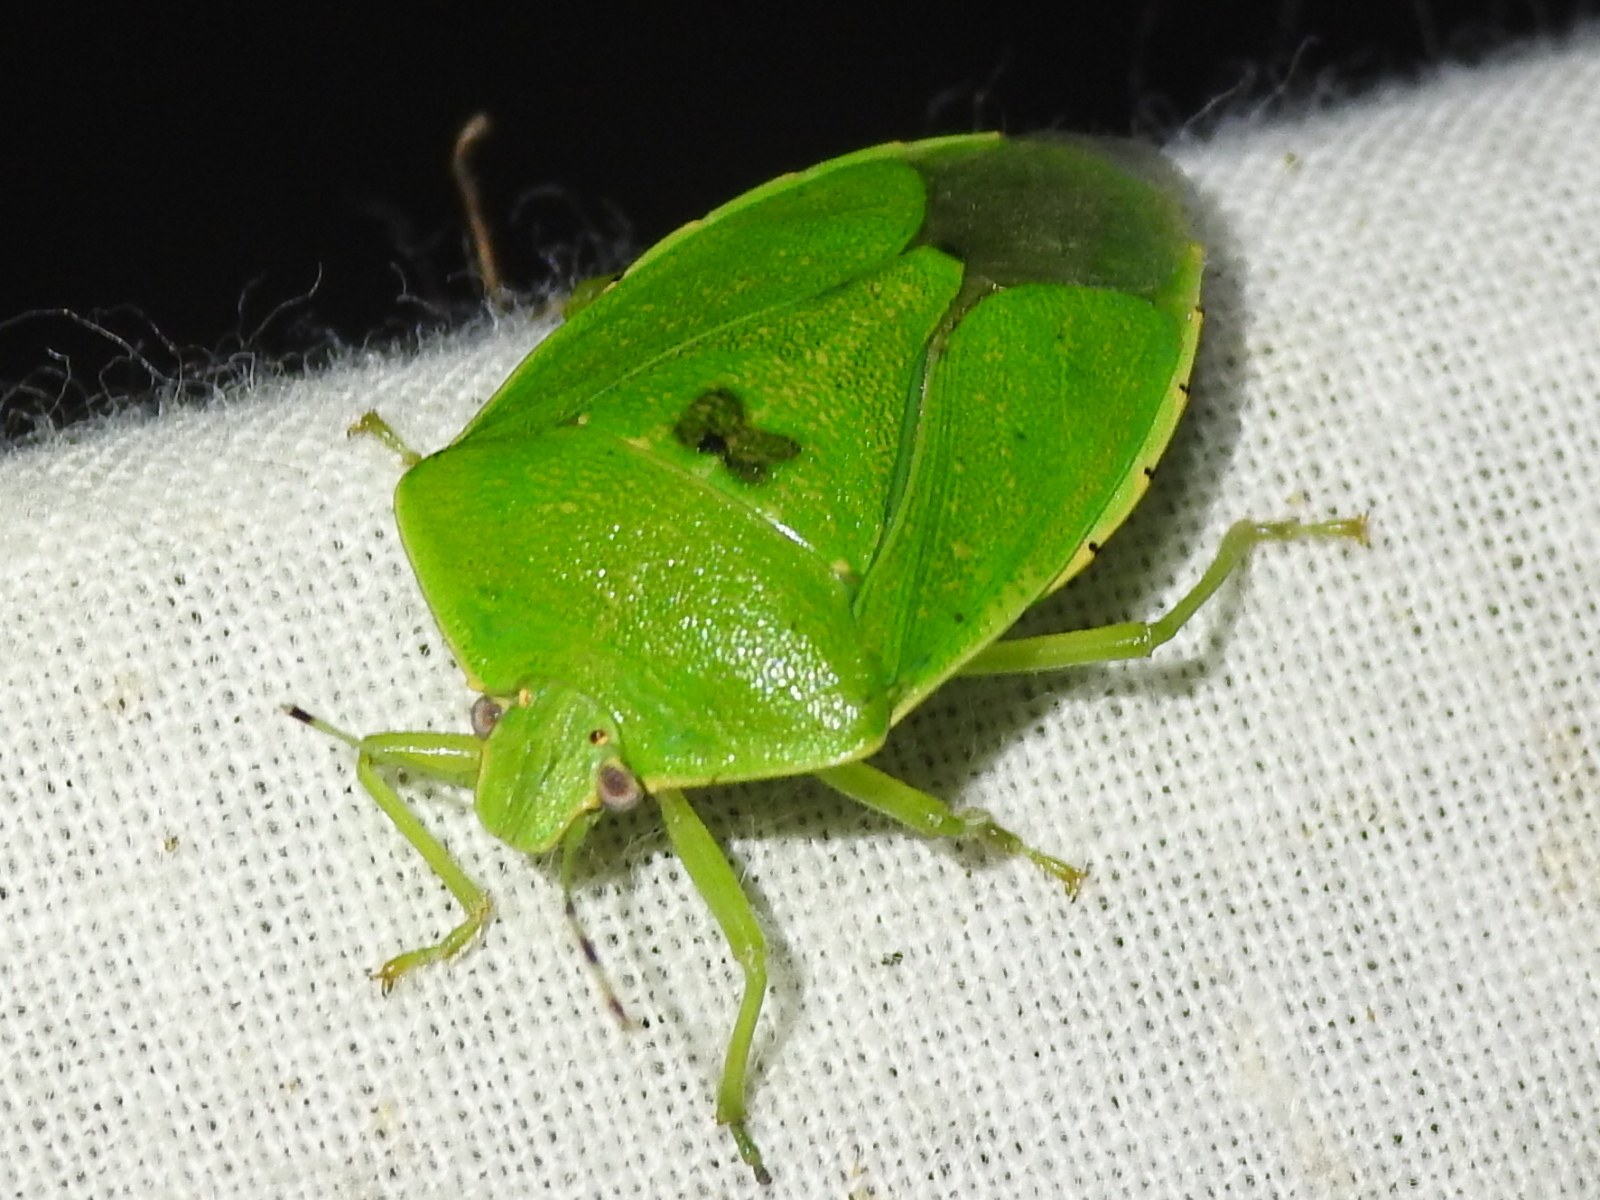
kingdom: Animalia
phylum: Arthropoda
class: Insecta
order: Hemiptera
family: Pentatomidae
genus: Chinavia
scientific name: Chinavia hilaris
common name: Green stink bug
